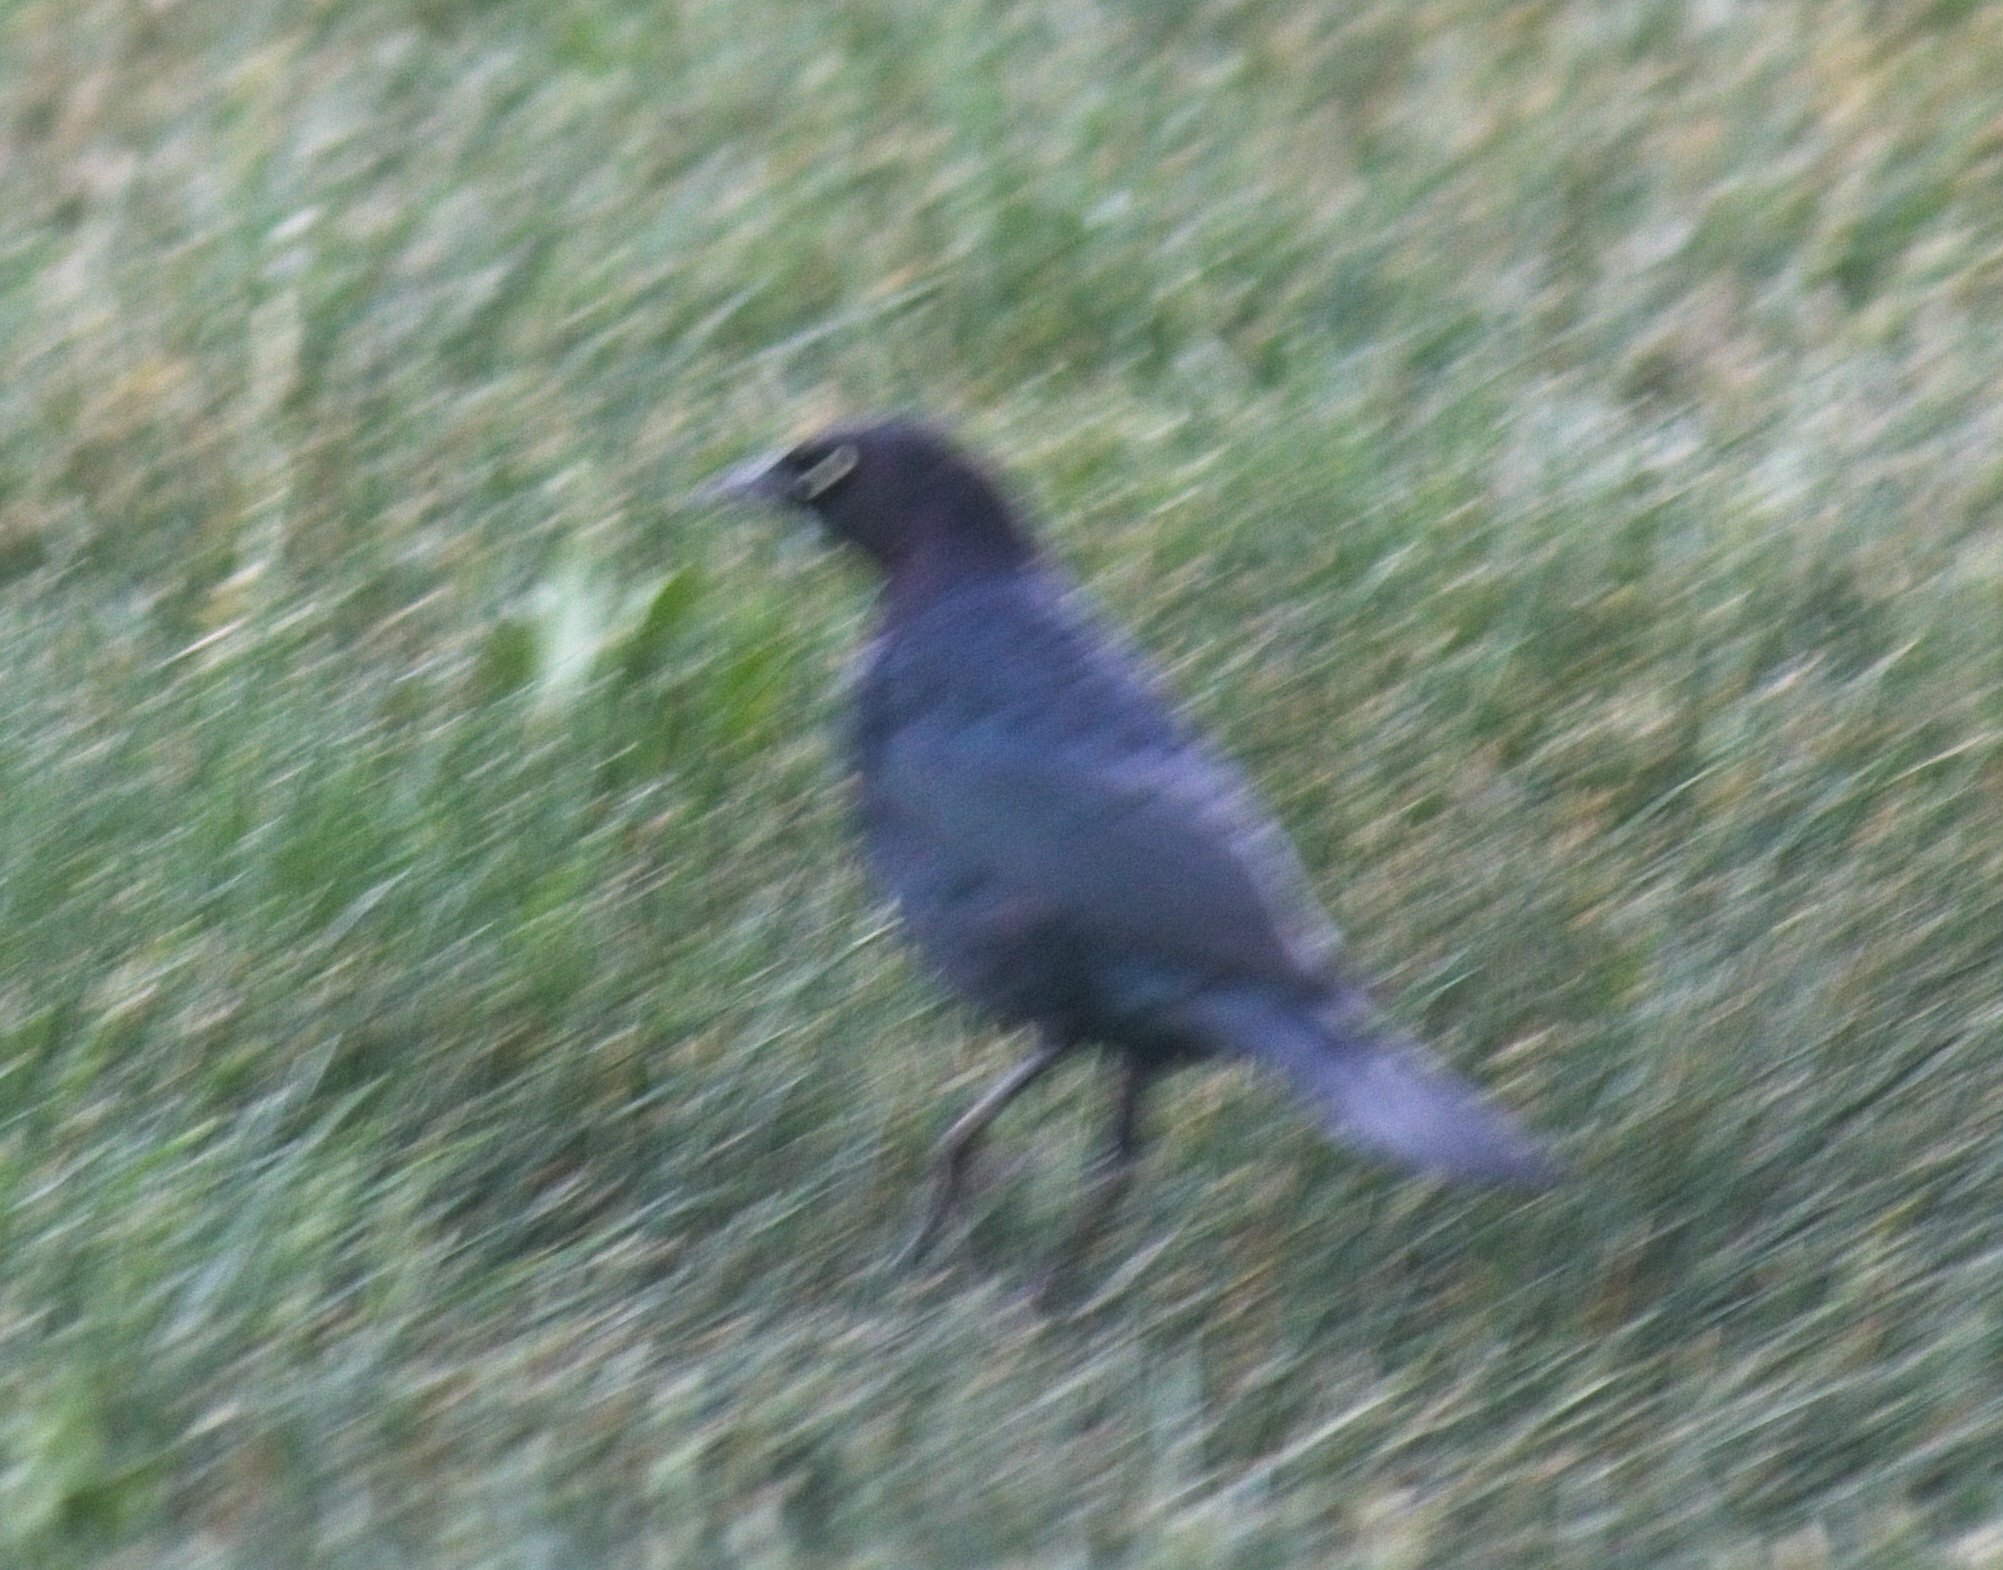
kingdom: Animalia
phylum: Chordata
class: Aves
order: Passeriformes
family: Icteridae
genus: Euphagus
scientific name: Euphagus cyanocephalus
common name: Brewer's blackbird
